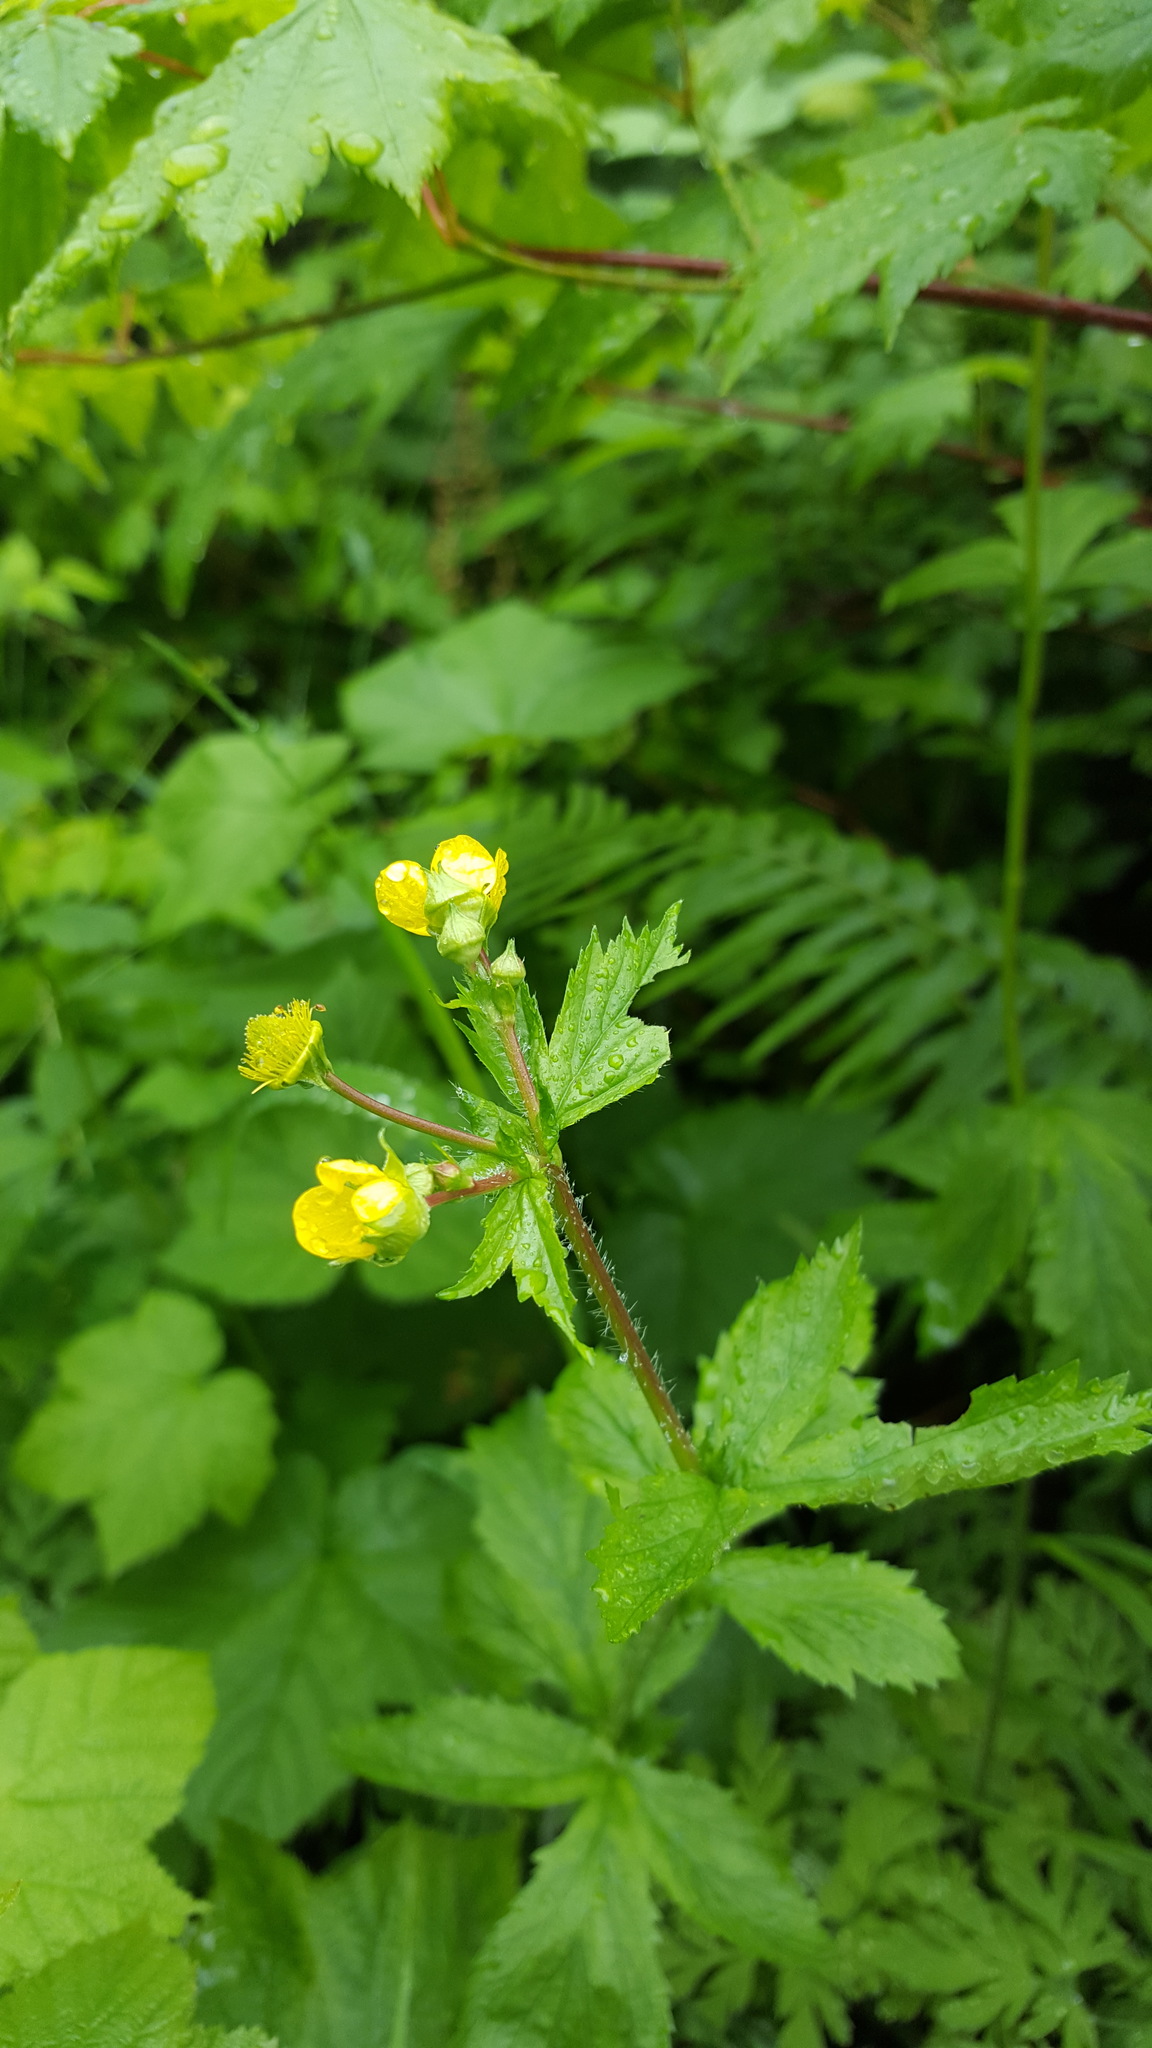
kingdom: Plantae
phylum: Tracheophyta
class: Magnoliopsida
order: Rosales
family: Rosaceae
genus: Geum
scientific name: Geum macrophyllum
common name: Large-leaved avens
